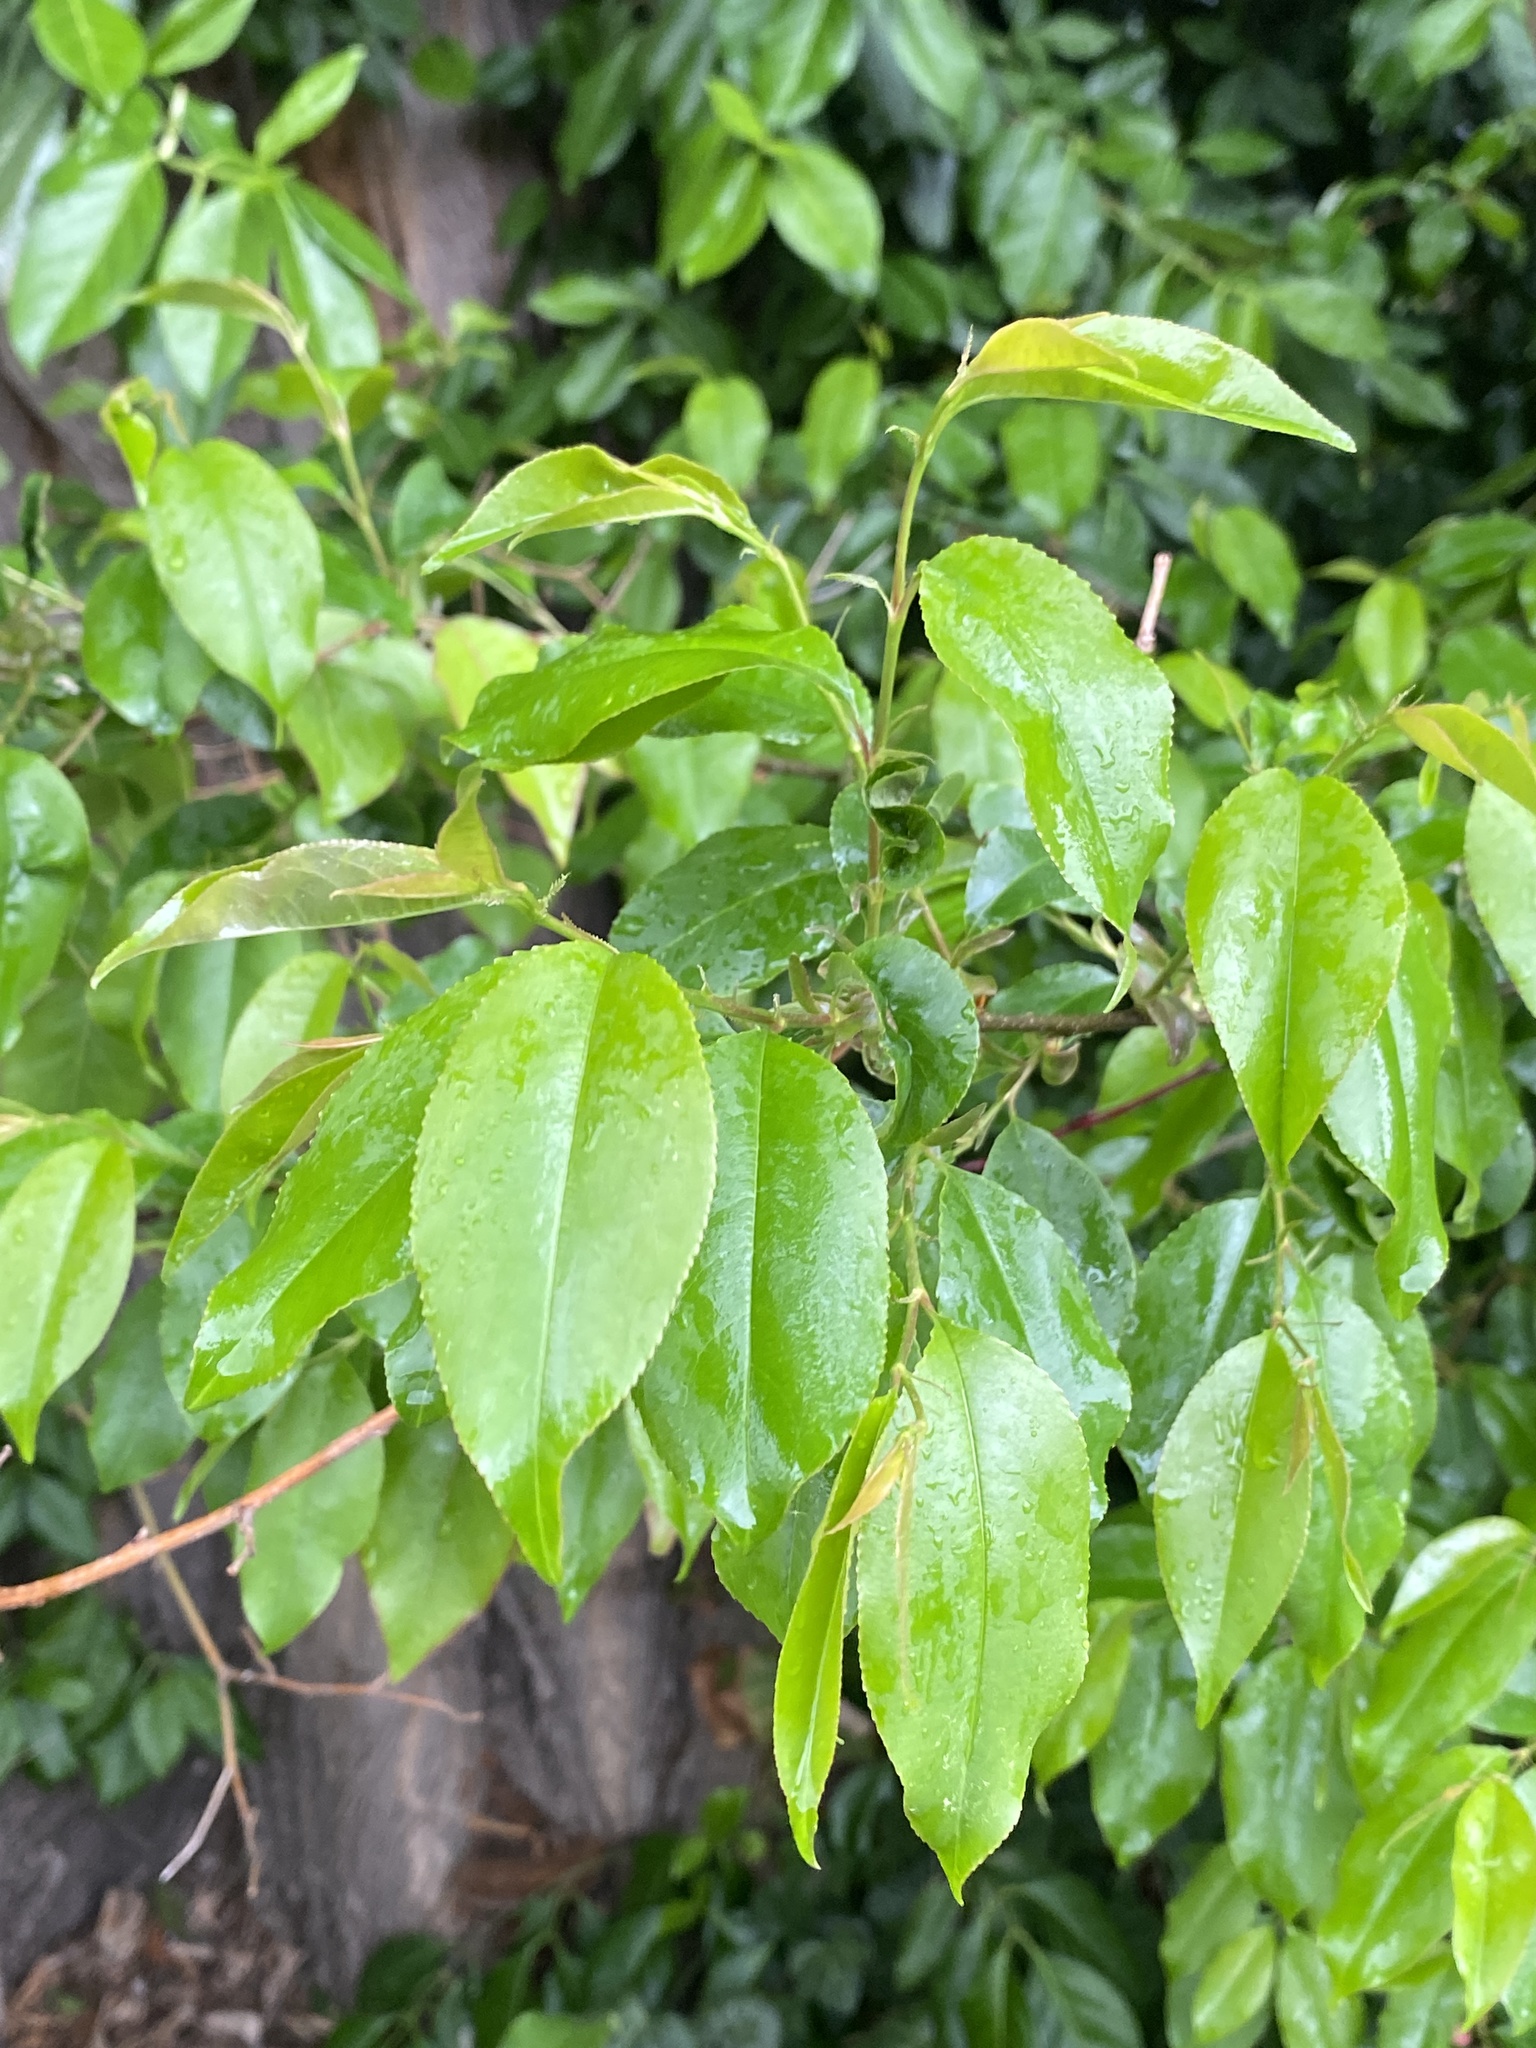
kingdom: Plantae
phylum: Tracheophyta
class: Magnoliopsida
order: Rosales
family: Rosaceae
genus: Prunus
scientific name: Prunus serotina
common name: Black cherry
